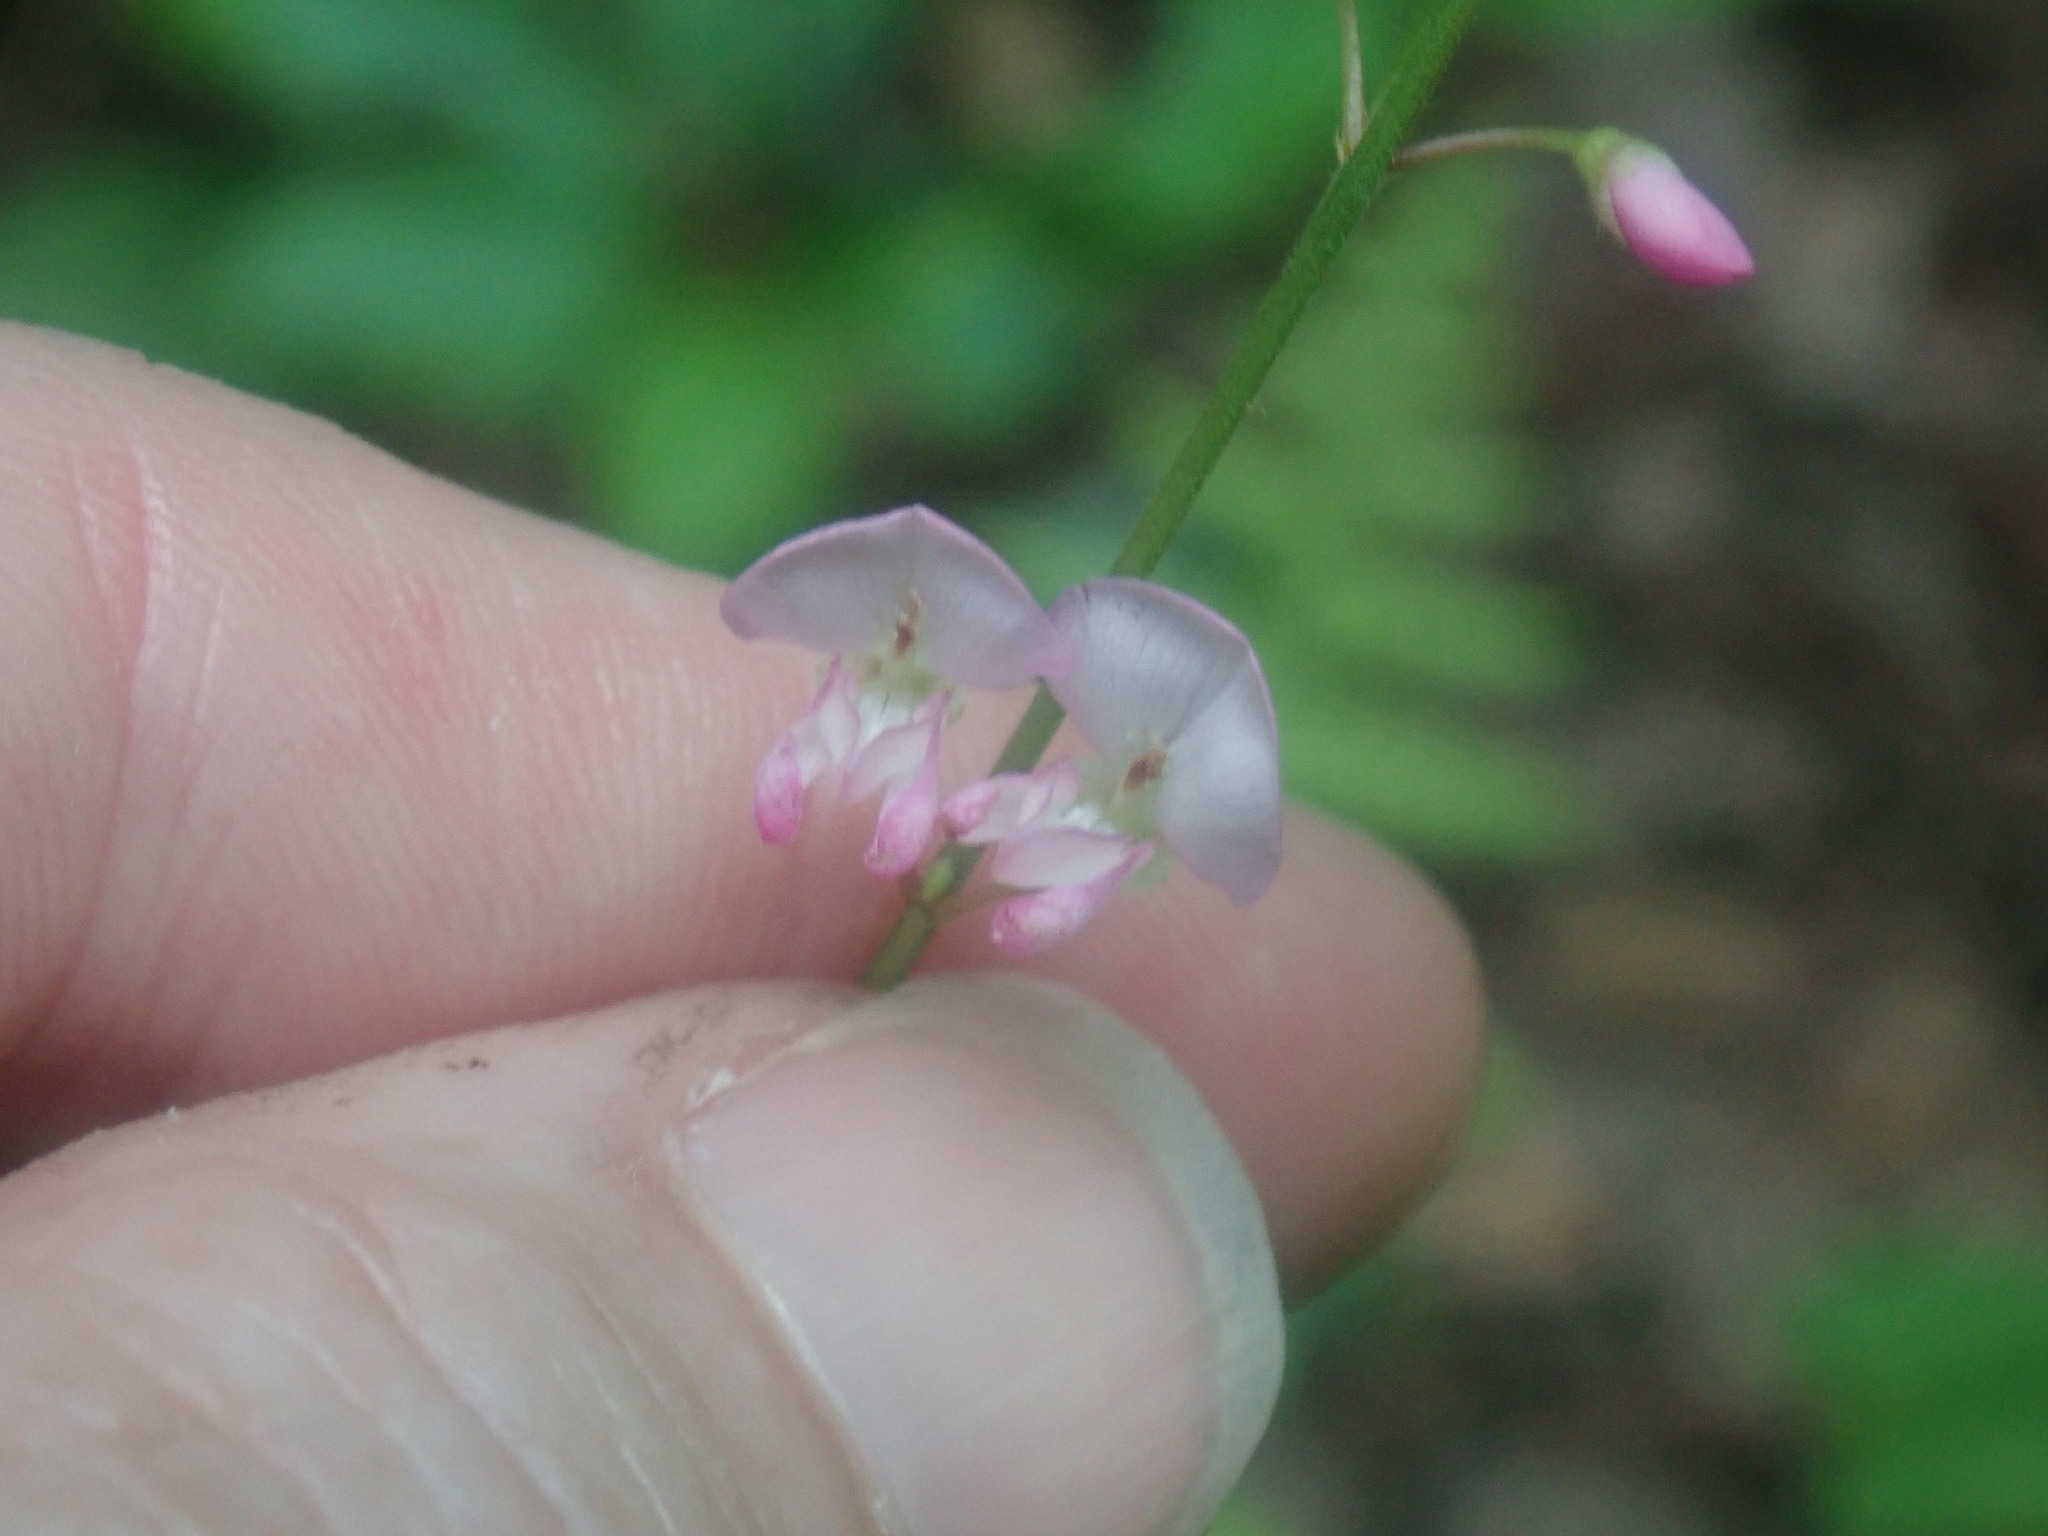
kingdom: Plantae
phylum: Tracheophyta
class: Magnoliopsida
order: Fabales
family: Fabaceae
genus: Hylodesmum
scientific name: Hylodesmum glutinosum
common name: Clustered-leaved tick-trefoil
